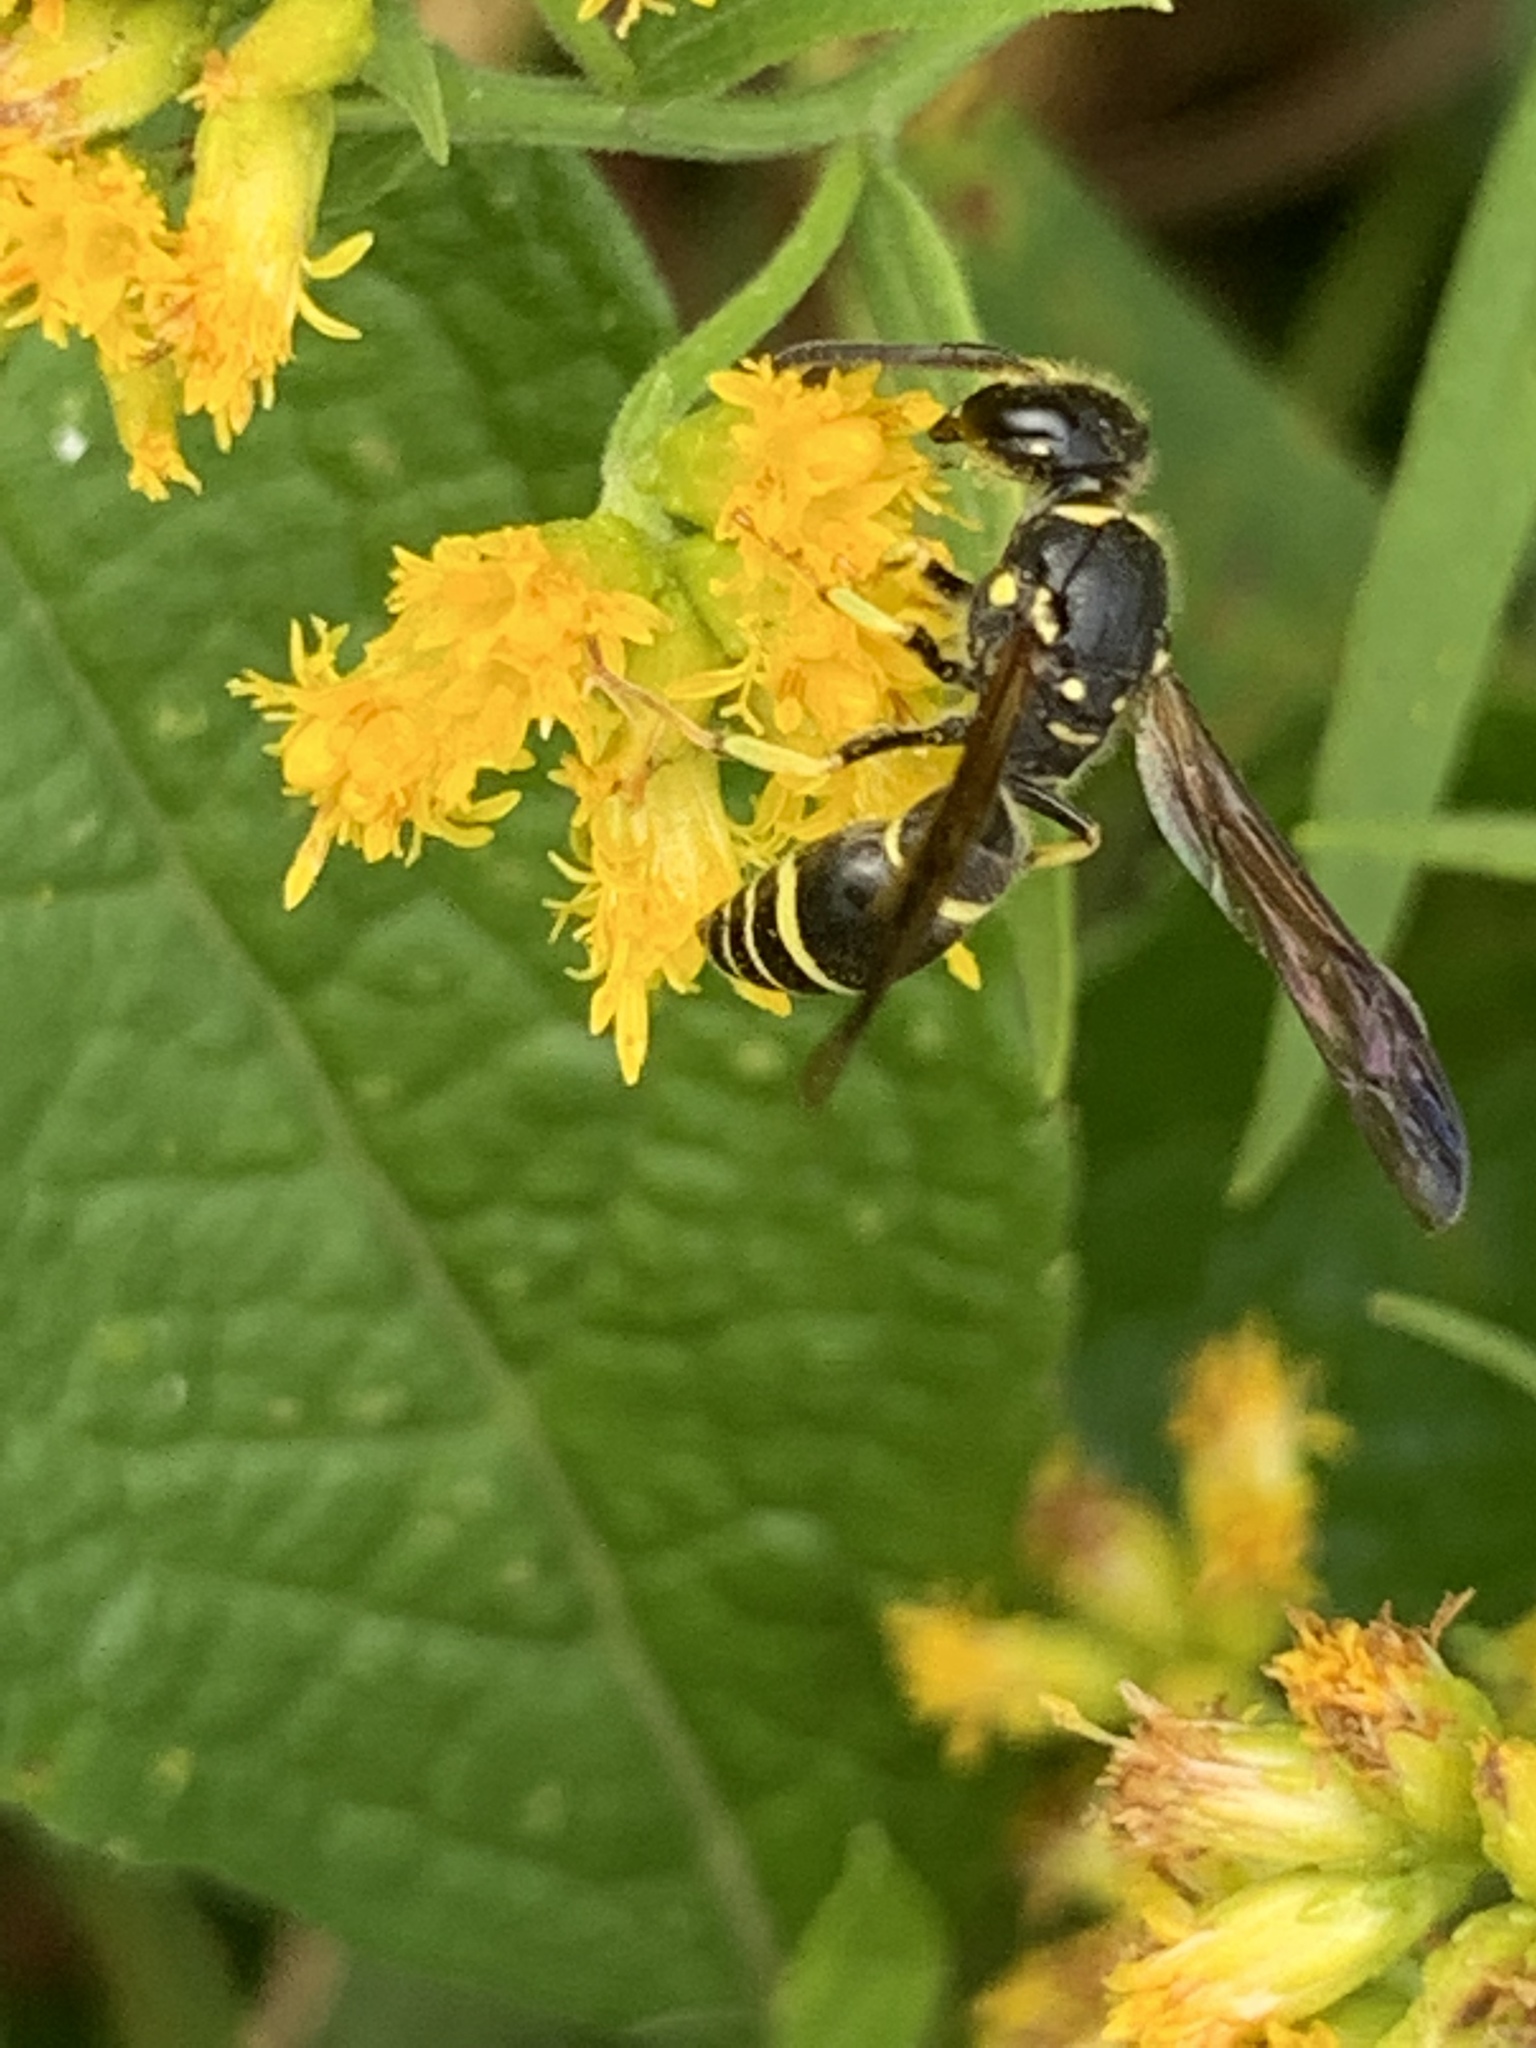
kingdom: Animalia
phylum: Arthropoda
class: Insecta
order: Hymenoptera
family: Vespidae
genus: Ancistrocerus
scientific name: Ancistrocerus
